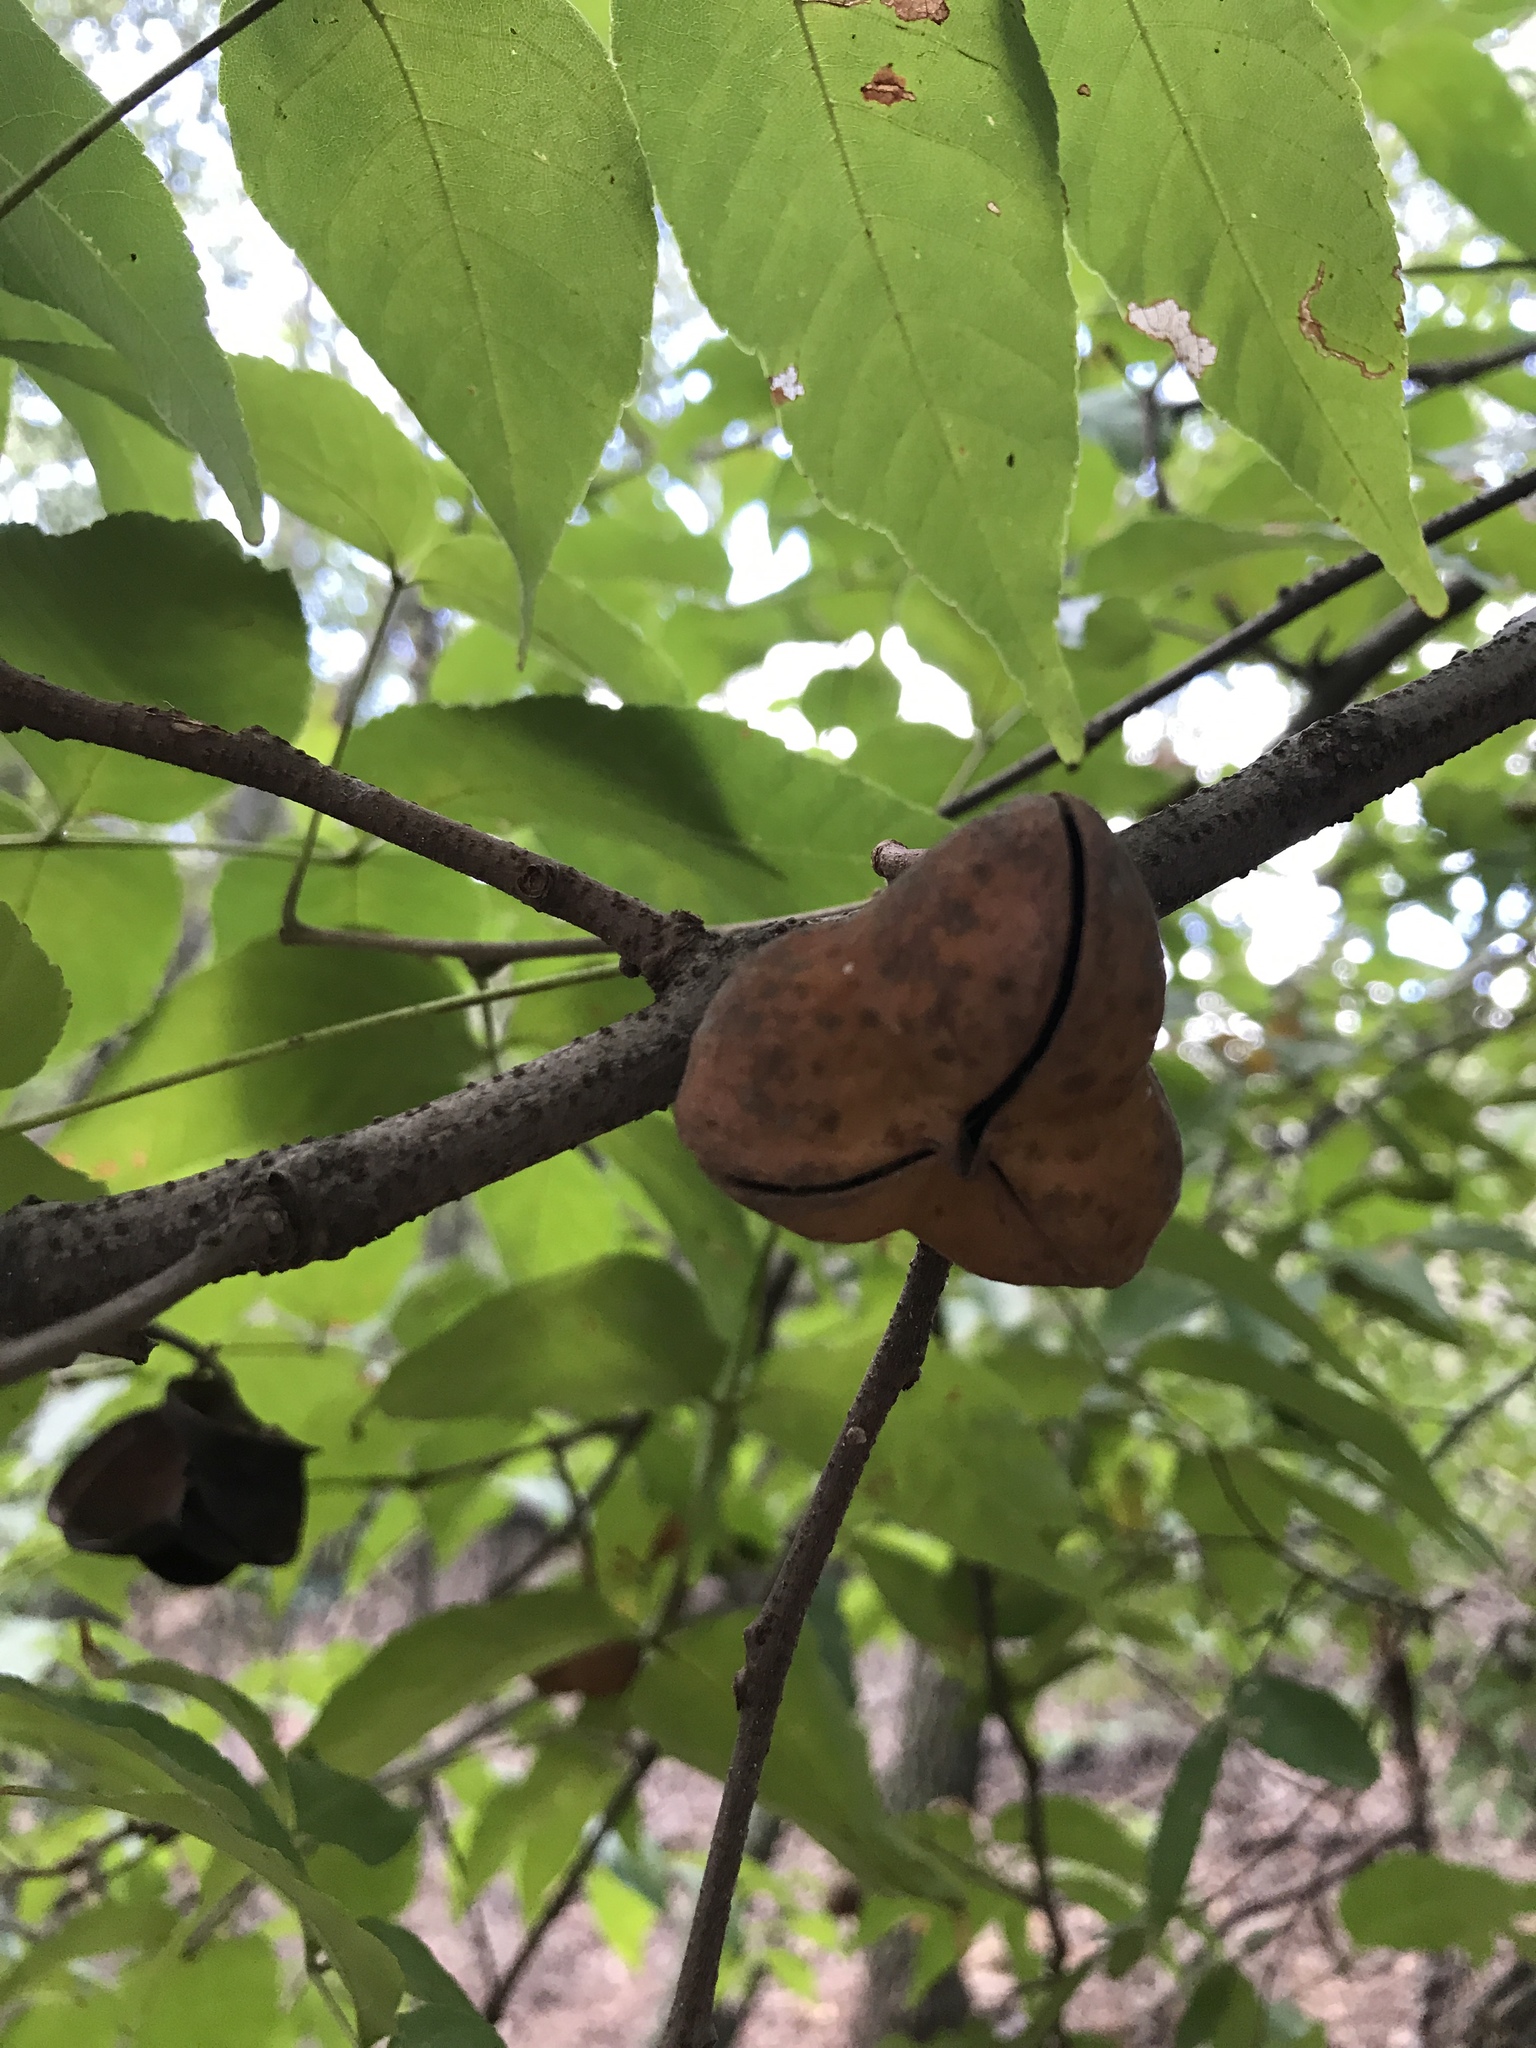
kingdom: Plantae
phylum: Tracheophyta
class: Magnoliopsida
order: Sapindales
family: Sapindaceae
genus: Ungnadia
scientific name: Ungnadia speciosa
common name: Texas-buckeye
